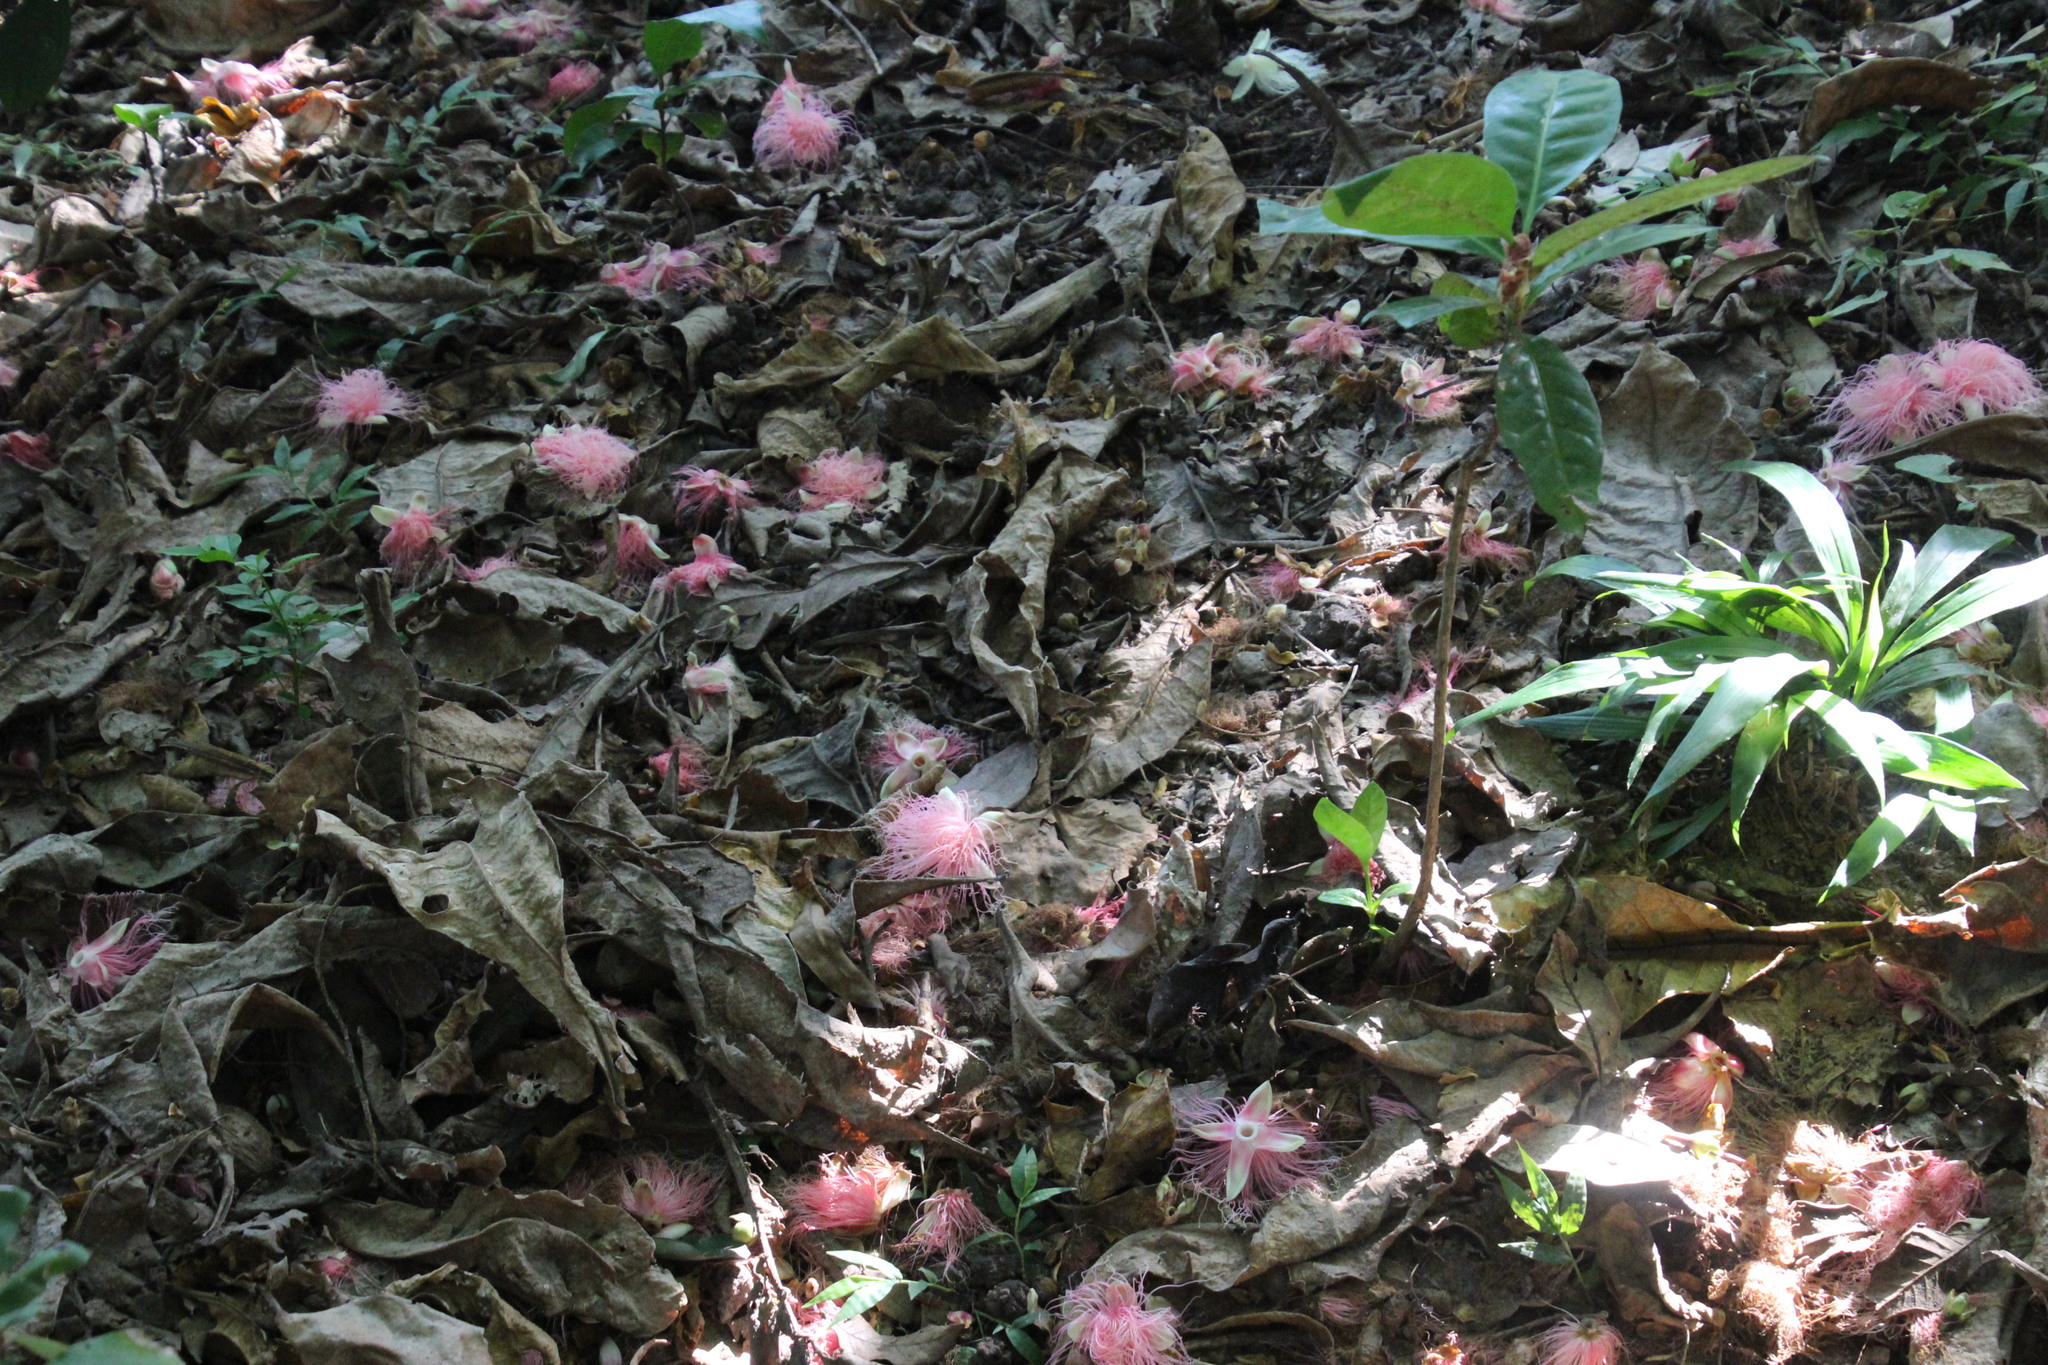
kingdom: Plantae
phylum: Tracheophyta
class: Magnoliopsida
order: Ericales
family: Lecythidaceae
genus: Barringtonia
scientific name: Barringtonia racemosa
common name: Brackwater mangrove
